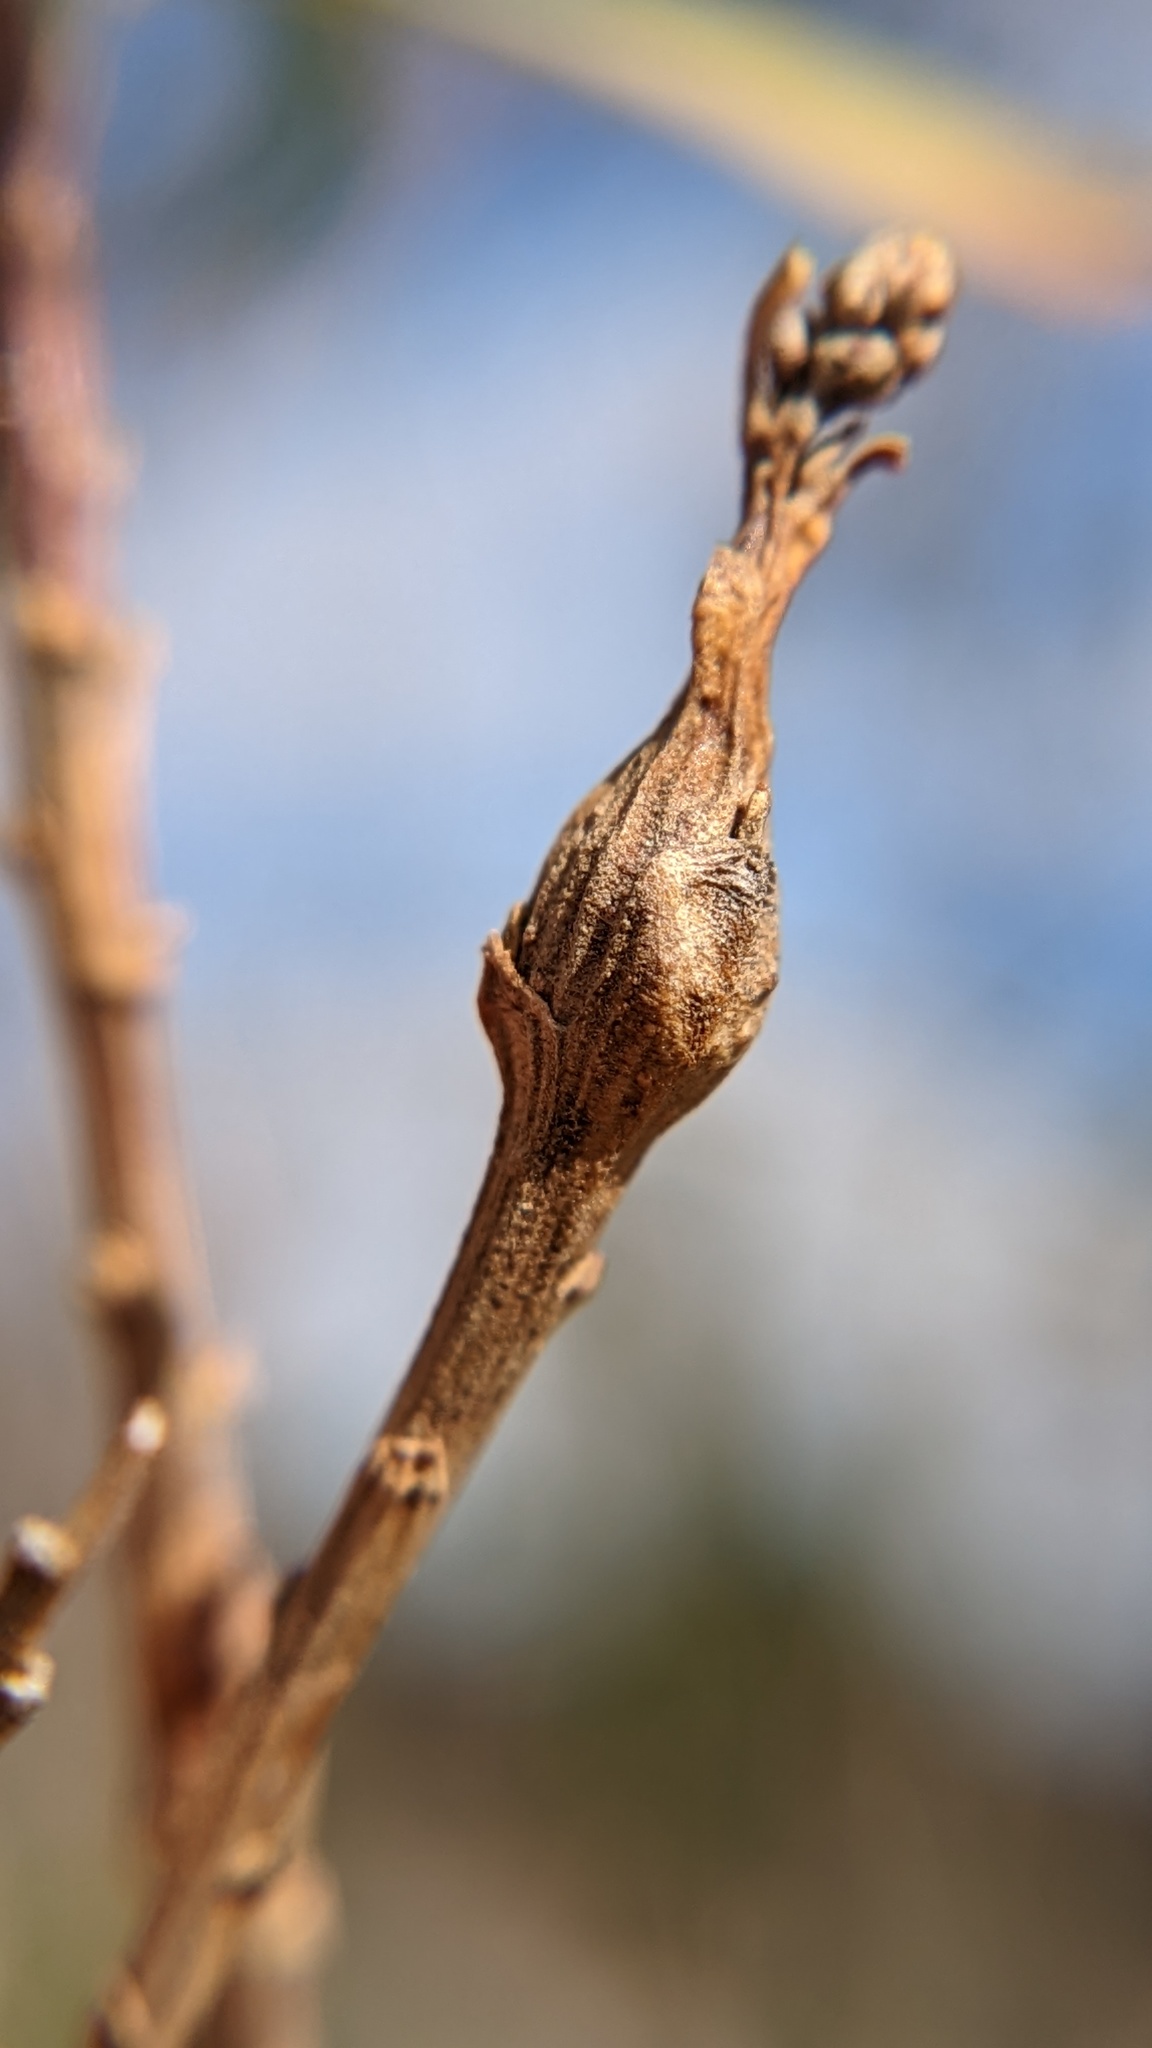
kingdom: Animalia
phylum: Arthropoda
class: Insecta
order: Diptera
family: Tephritidae
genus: Tephritis
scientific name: Tephritis baccharis
